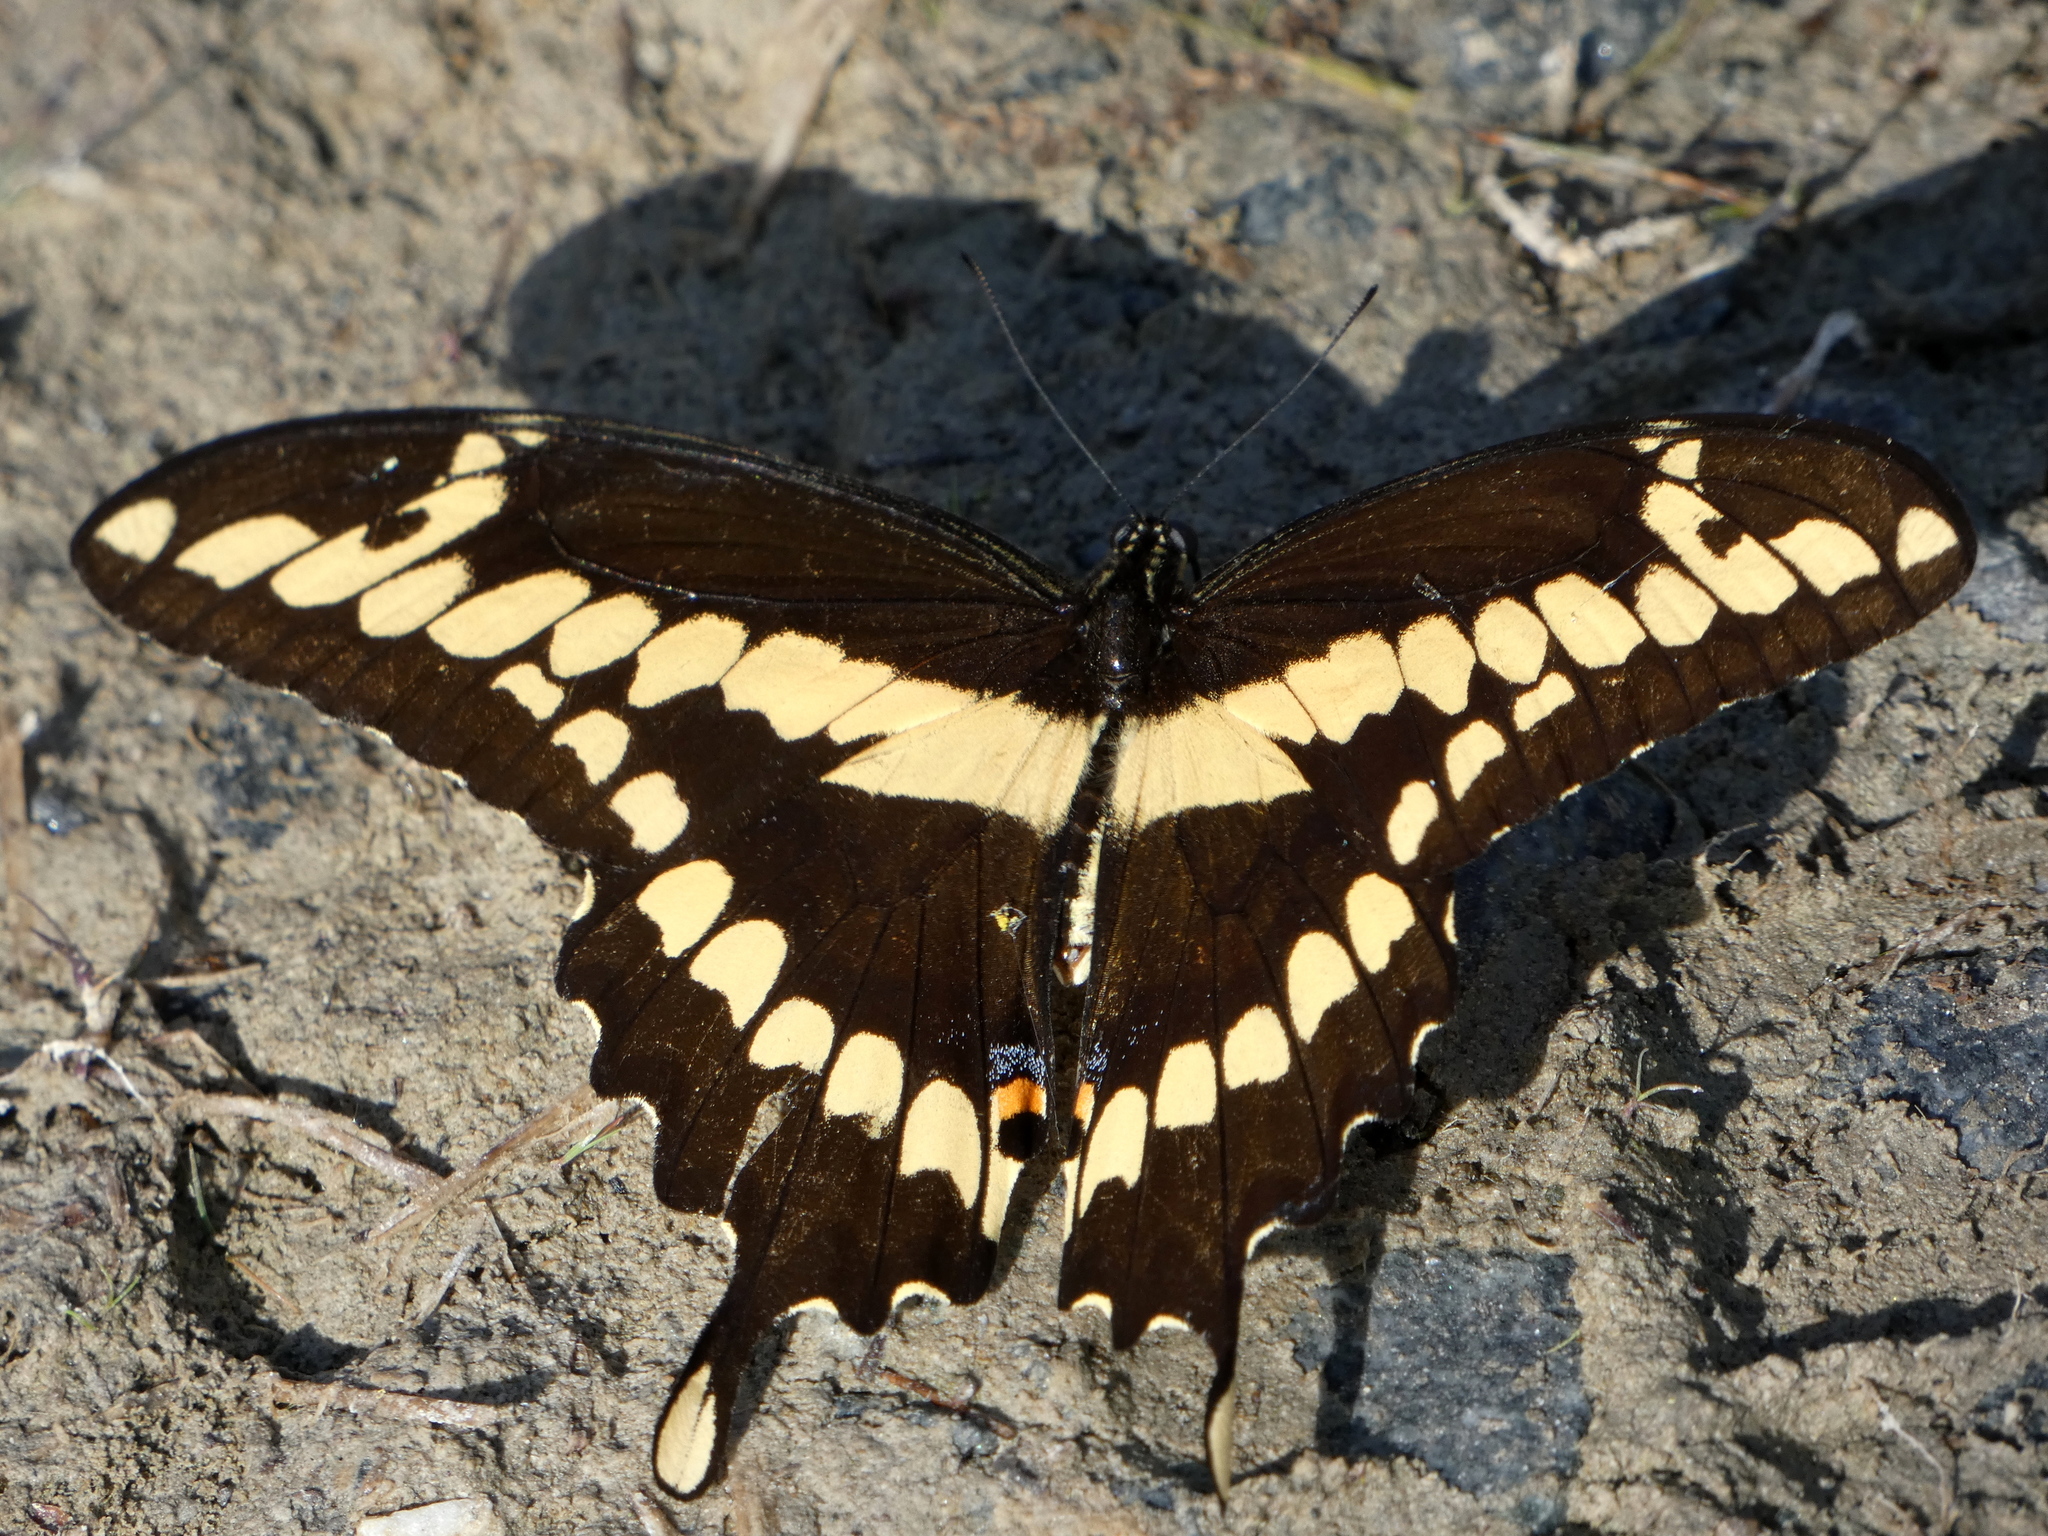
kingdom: Animalia
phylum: Arthropoda
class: Insecta
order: Lepidoptera
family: Papilionidae
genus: Papilio
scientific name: Papilio cresphontes
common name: Giant swallowtail
